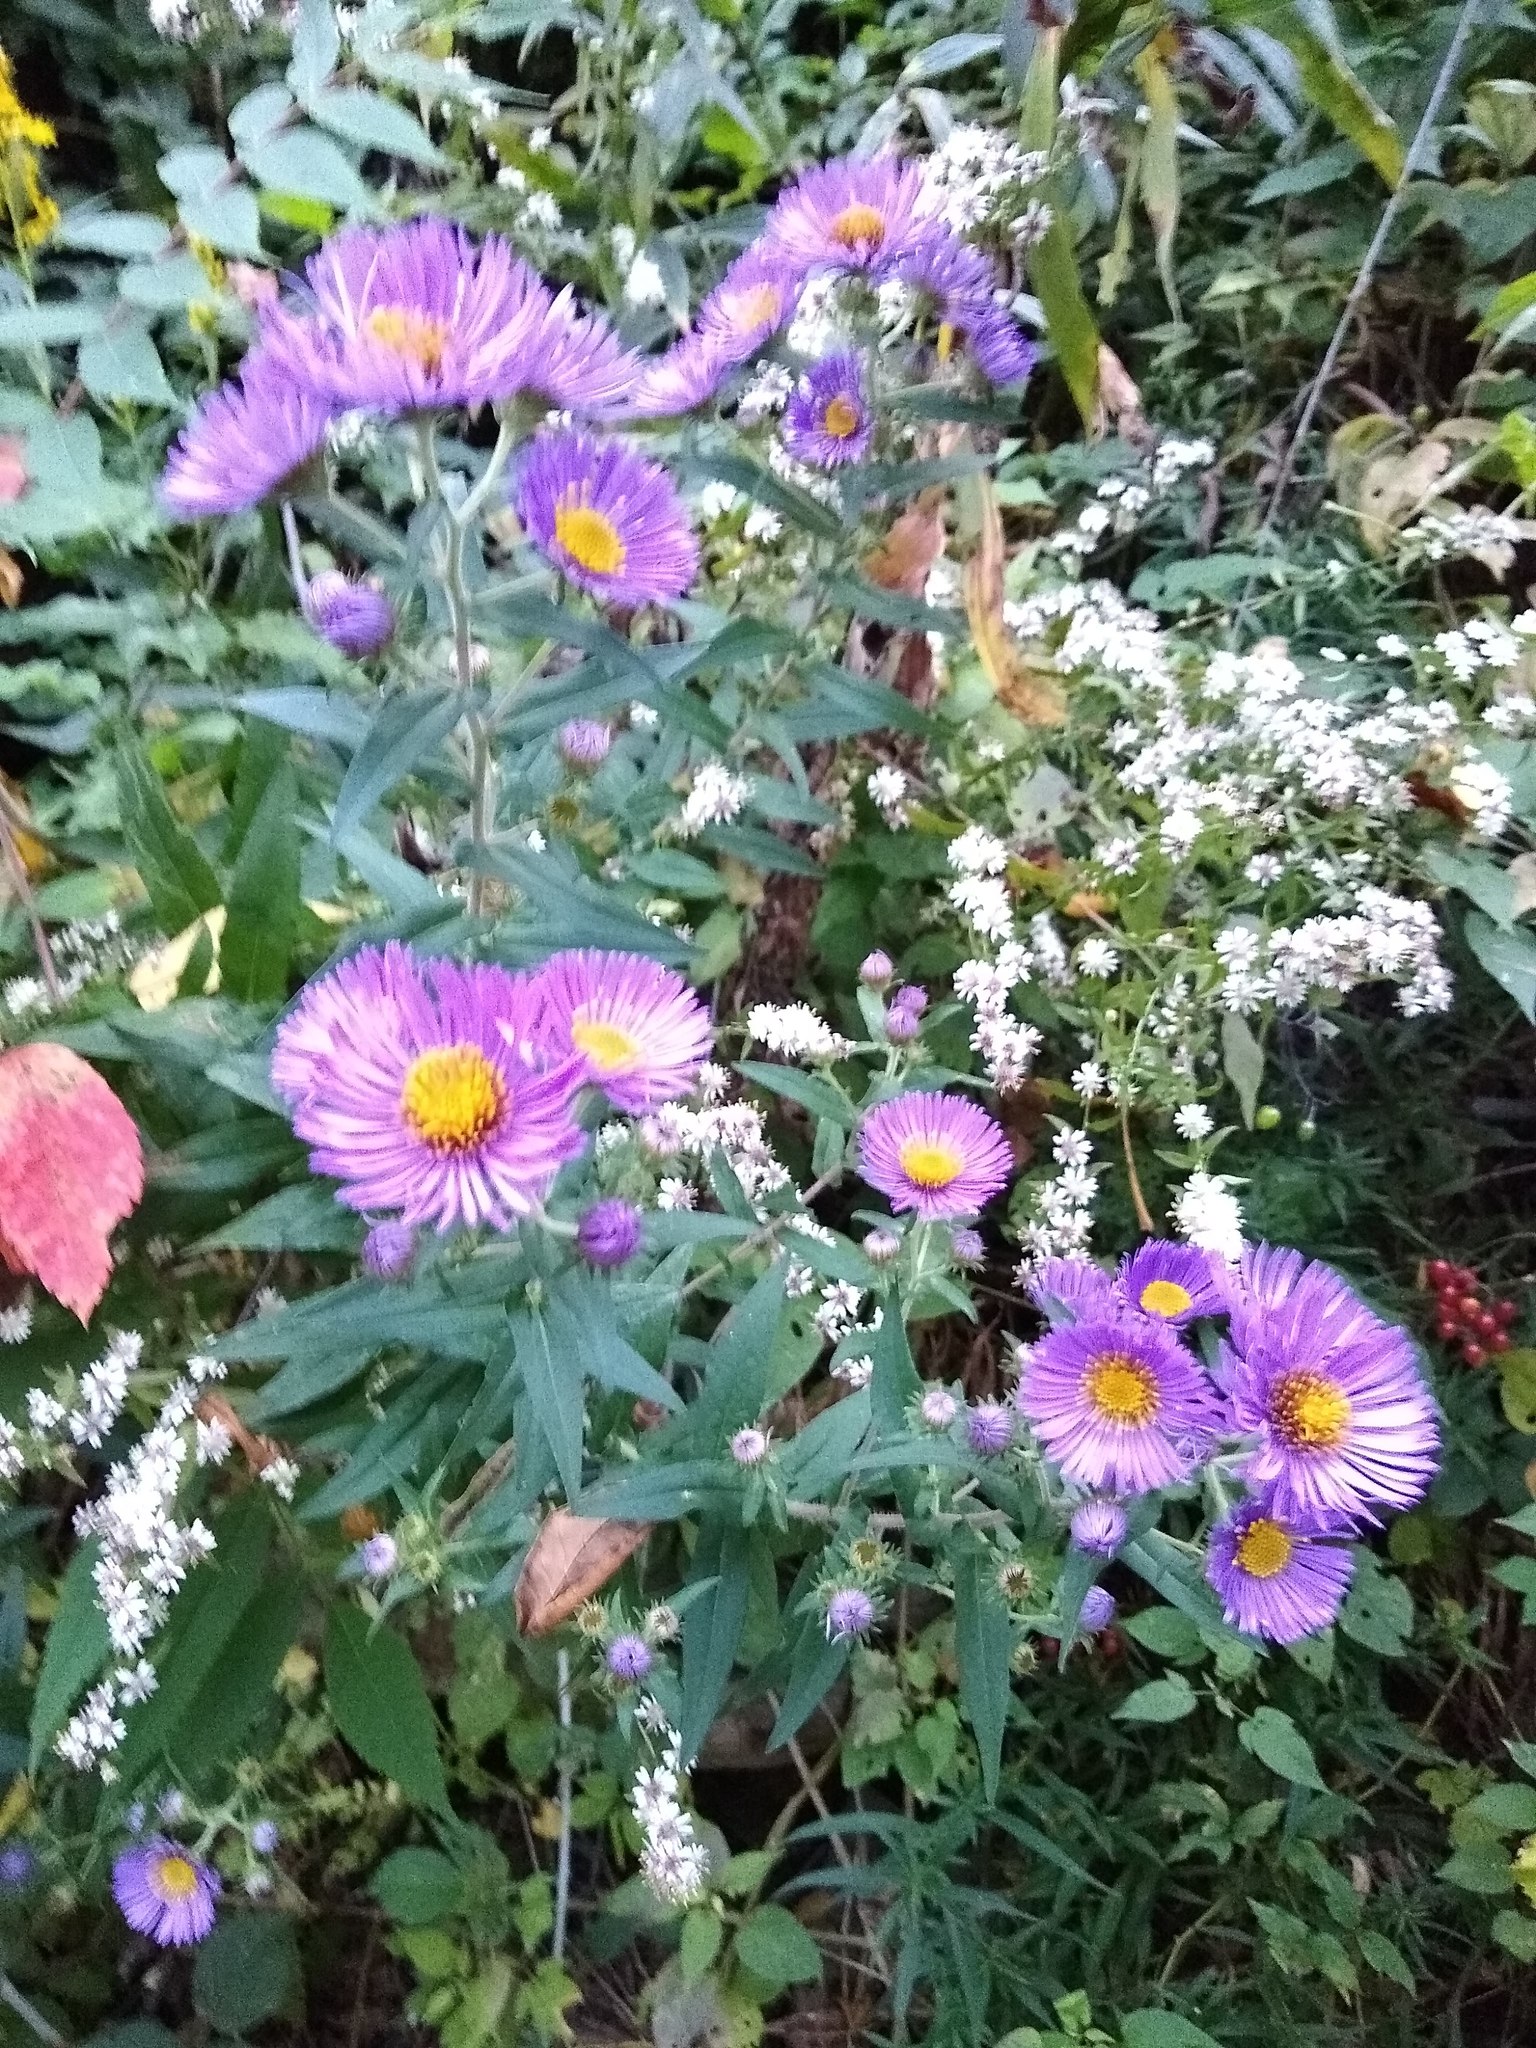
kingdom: Plantae
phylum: Tracheophyta
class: Magnoliopsida
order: Asterales
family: Asteraceae
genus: Symphyotrichum
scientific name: Symphyotrichum novae-angliae
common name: Michaelmas daisy
